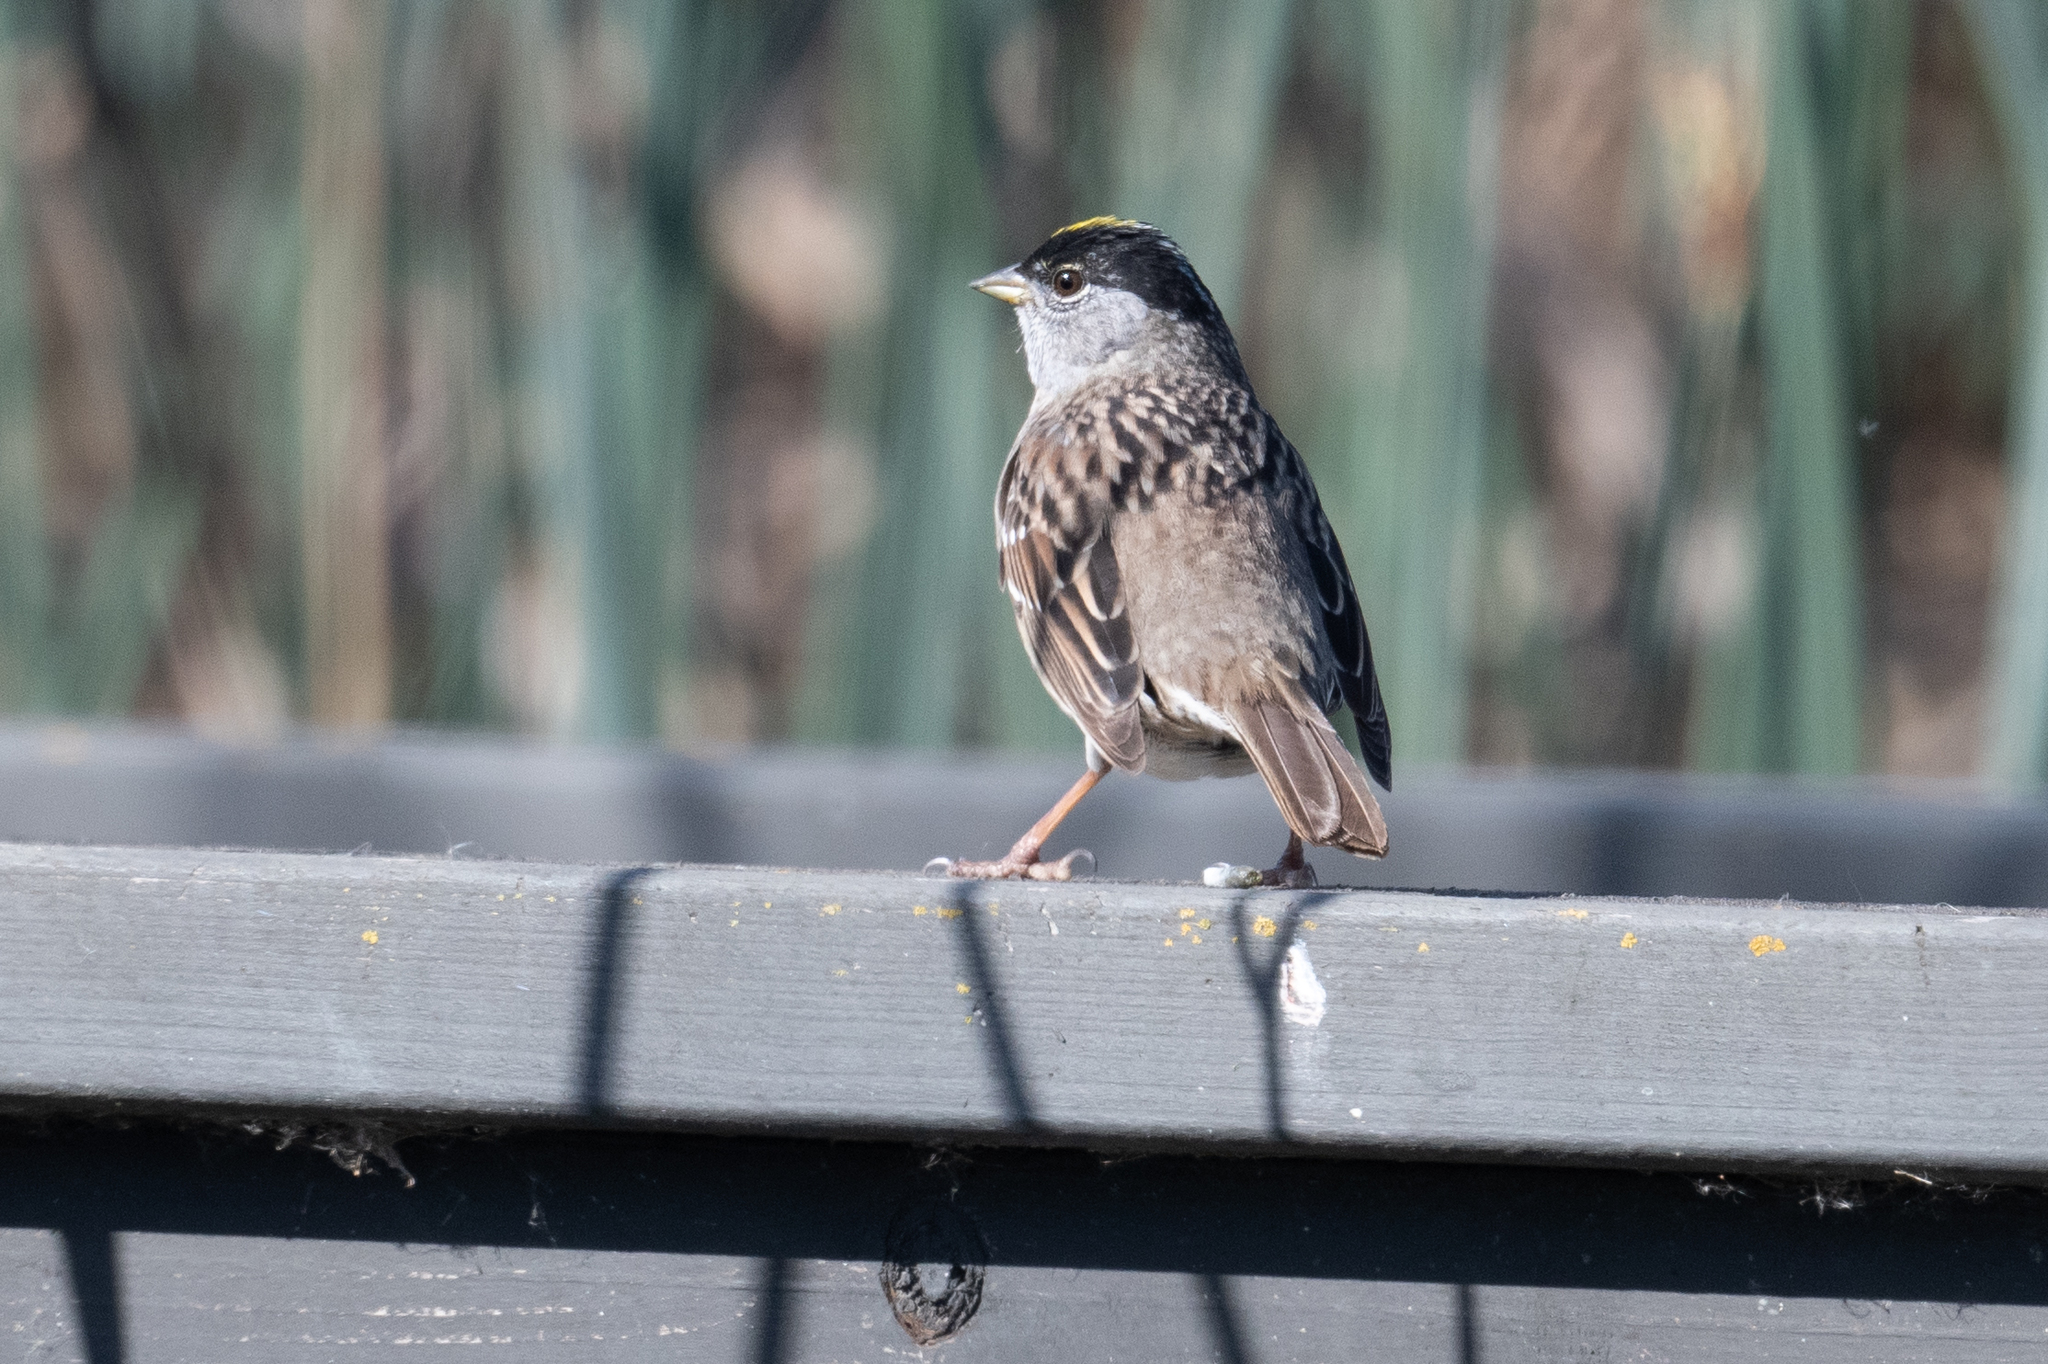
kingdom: Animalia
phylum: Chordata
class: Aves
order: Passeriformes
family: Passerellidae
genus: Zonotrichia
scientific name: Zonotrichia atricapilla
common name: Golden-crowned sparrow
